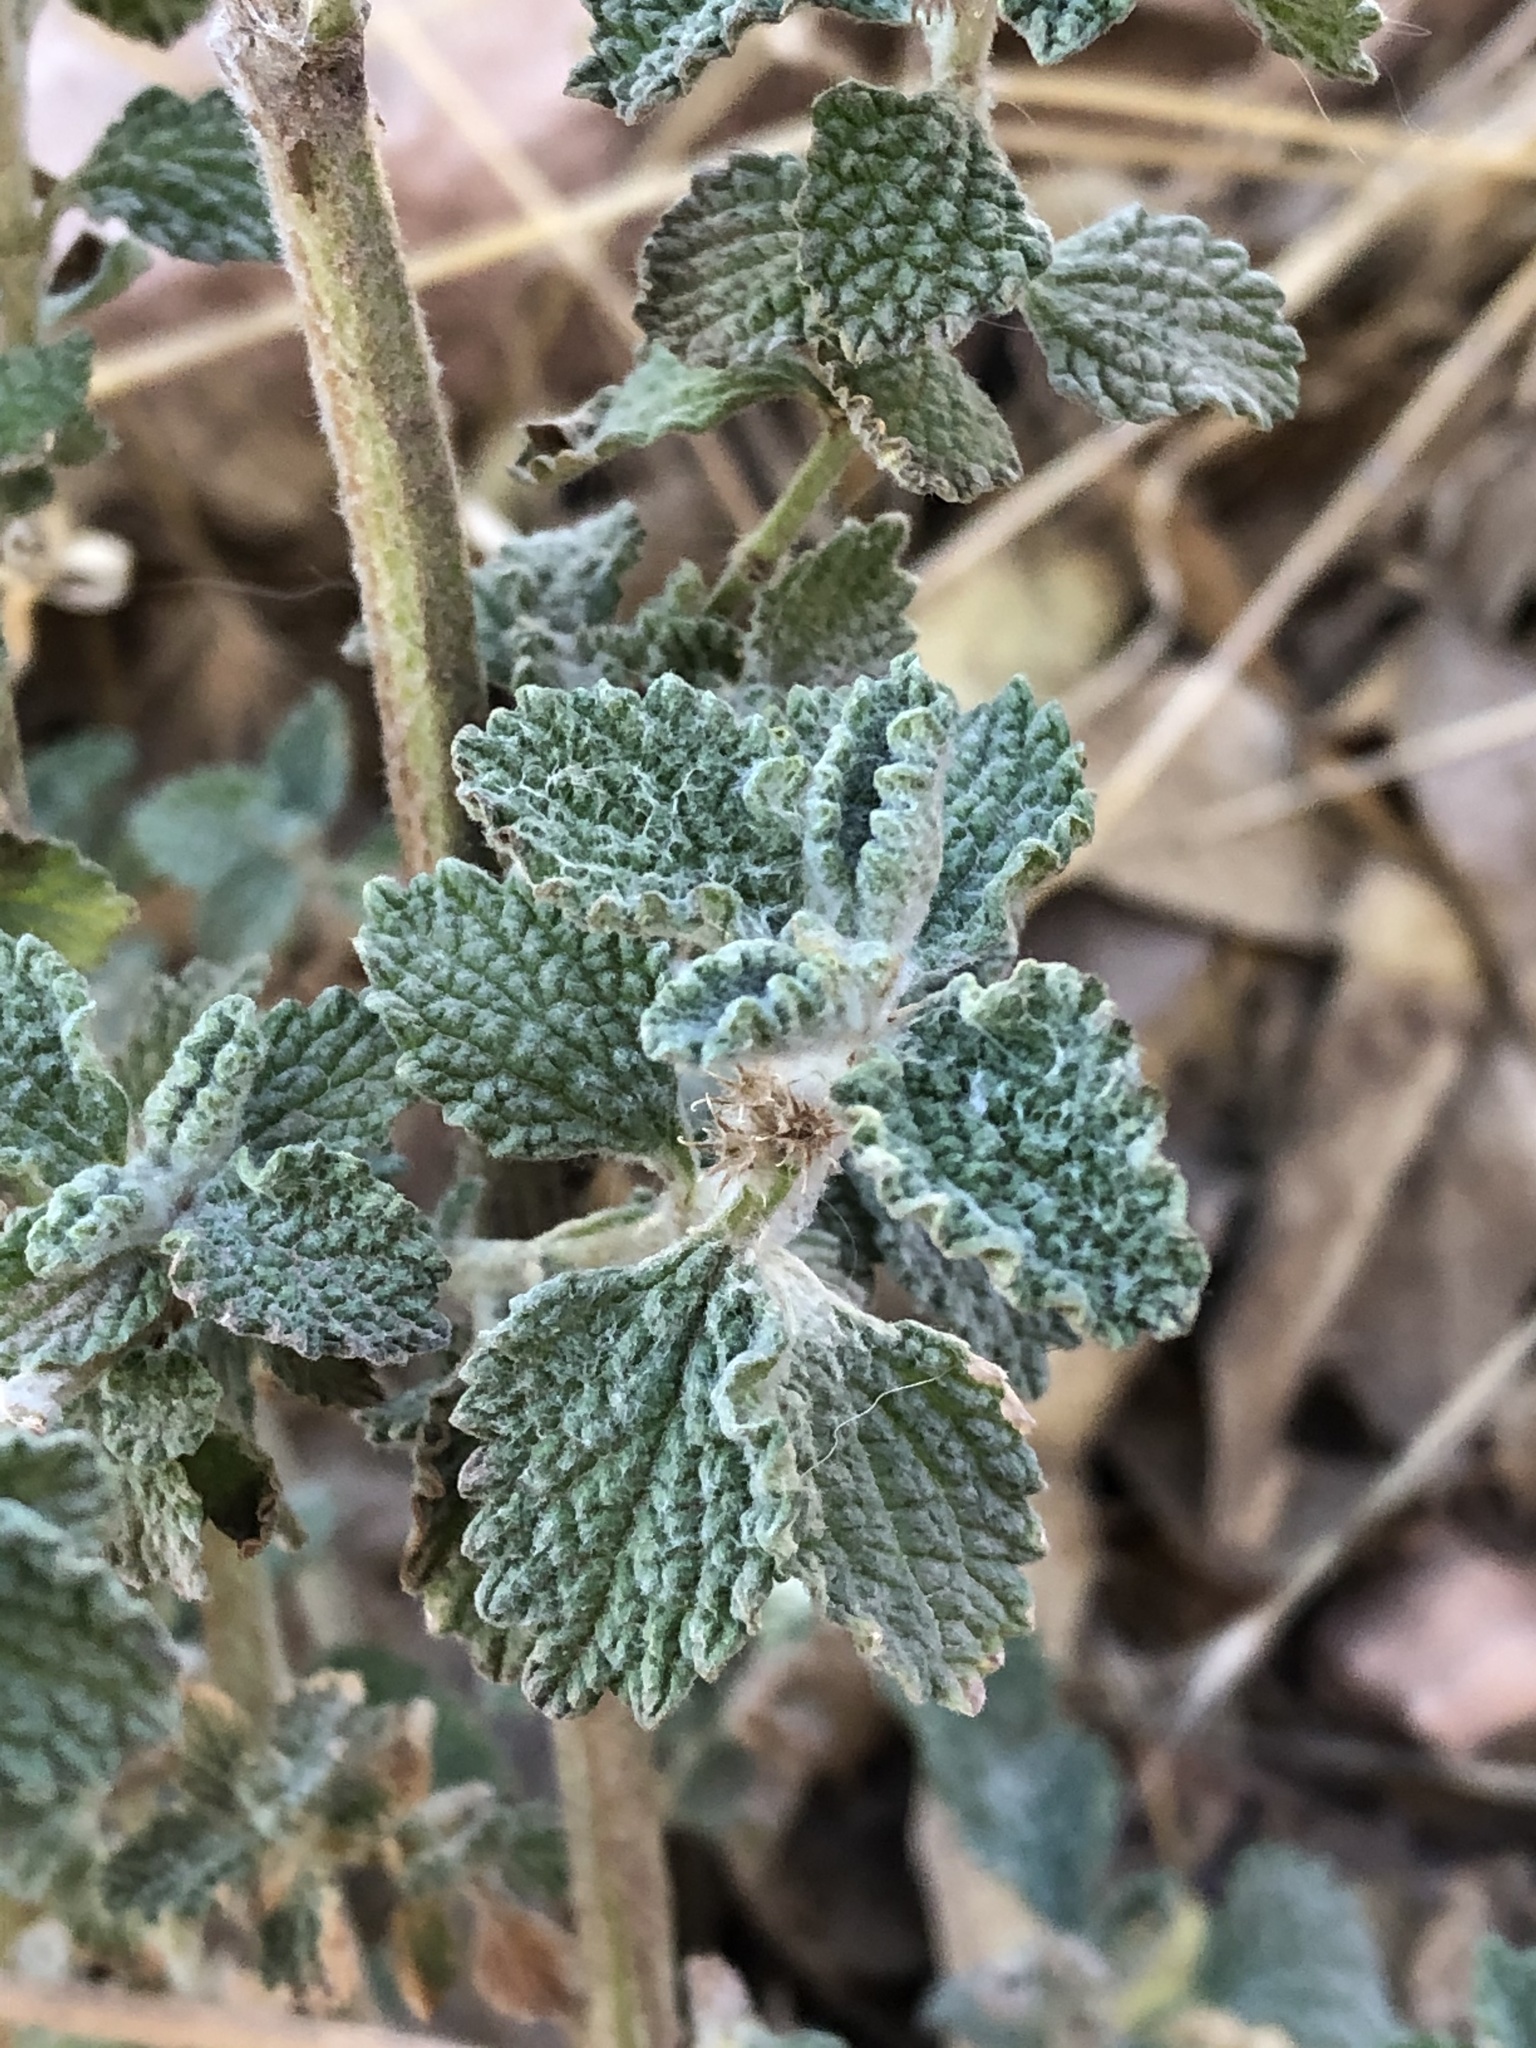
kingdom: Plantae
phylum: Tracheophyta
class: Magnoliopsida
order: Lamiales
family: Lamiaceae
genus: Marrubium
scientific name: Marrubium vulgare
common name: Horehound
